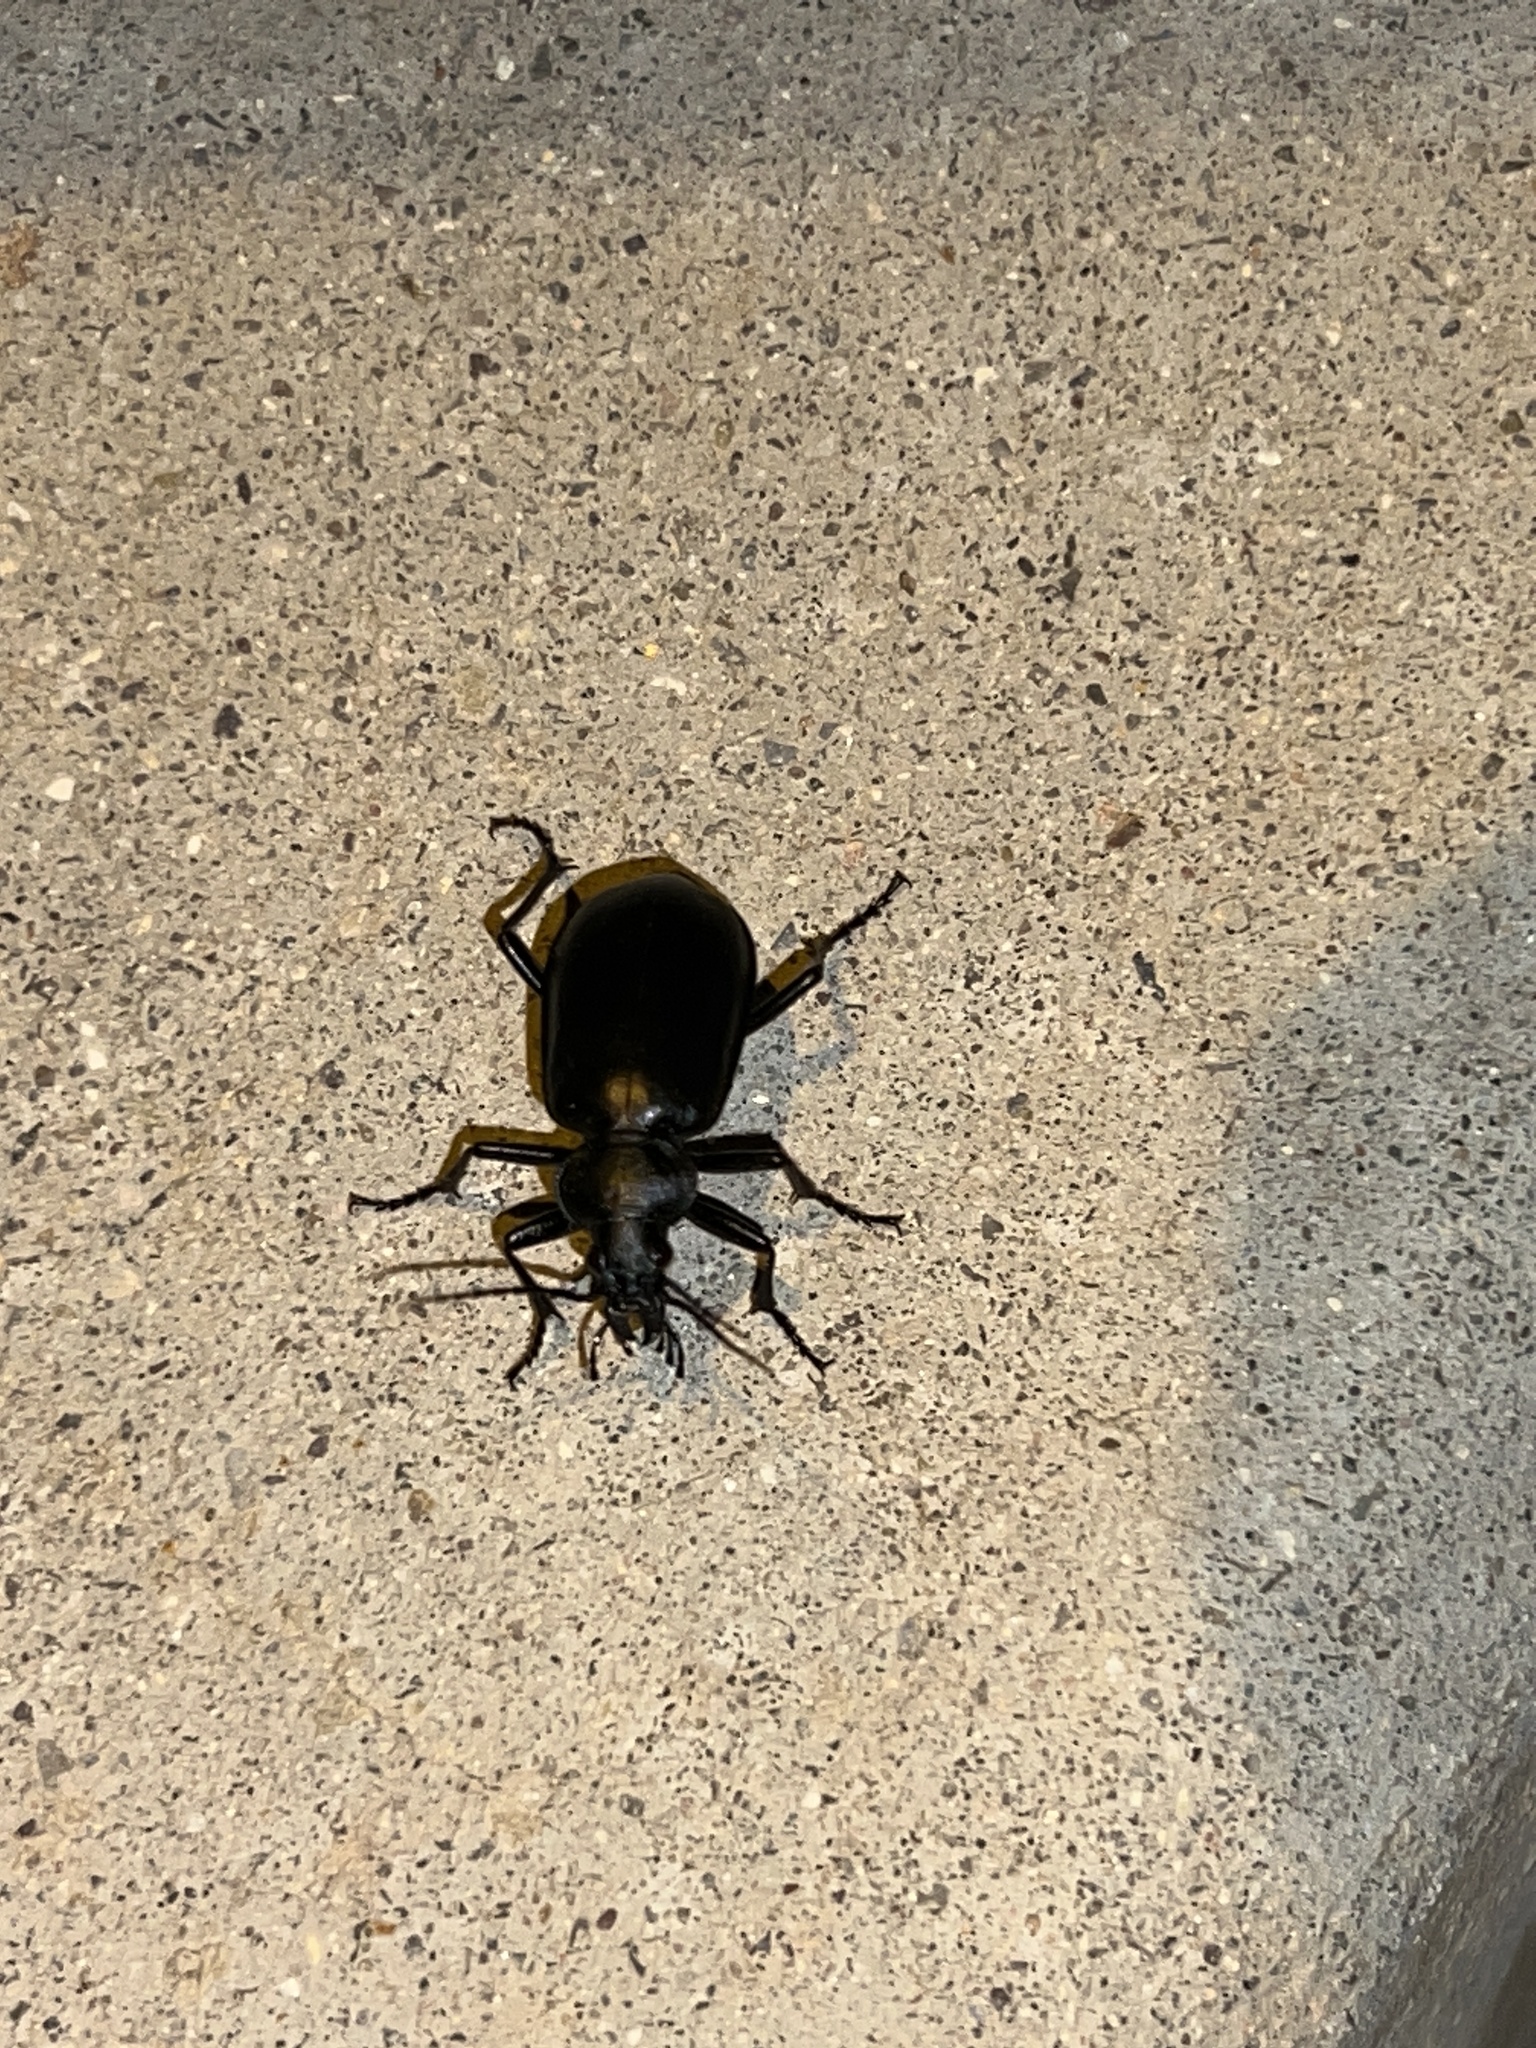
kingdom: Animalia
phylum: Arthropoda
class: Insecta
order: Coleoptera
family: Carabidae
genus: Calosoma
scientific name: Calosoma peregrinator
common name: Ground beetle
